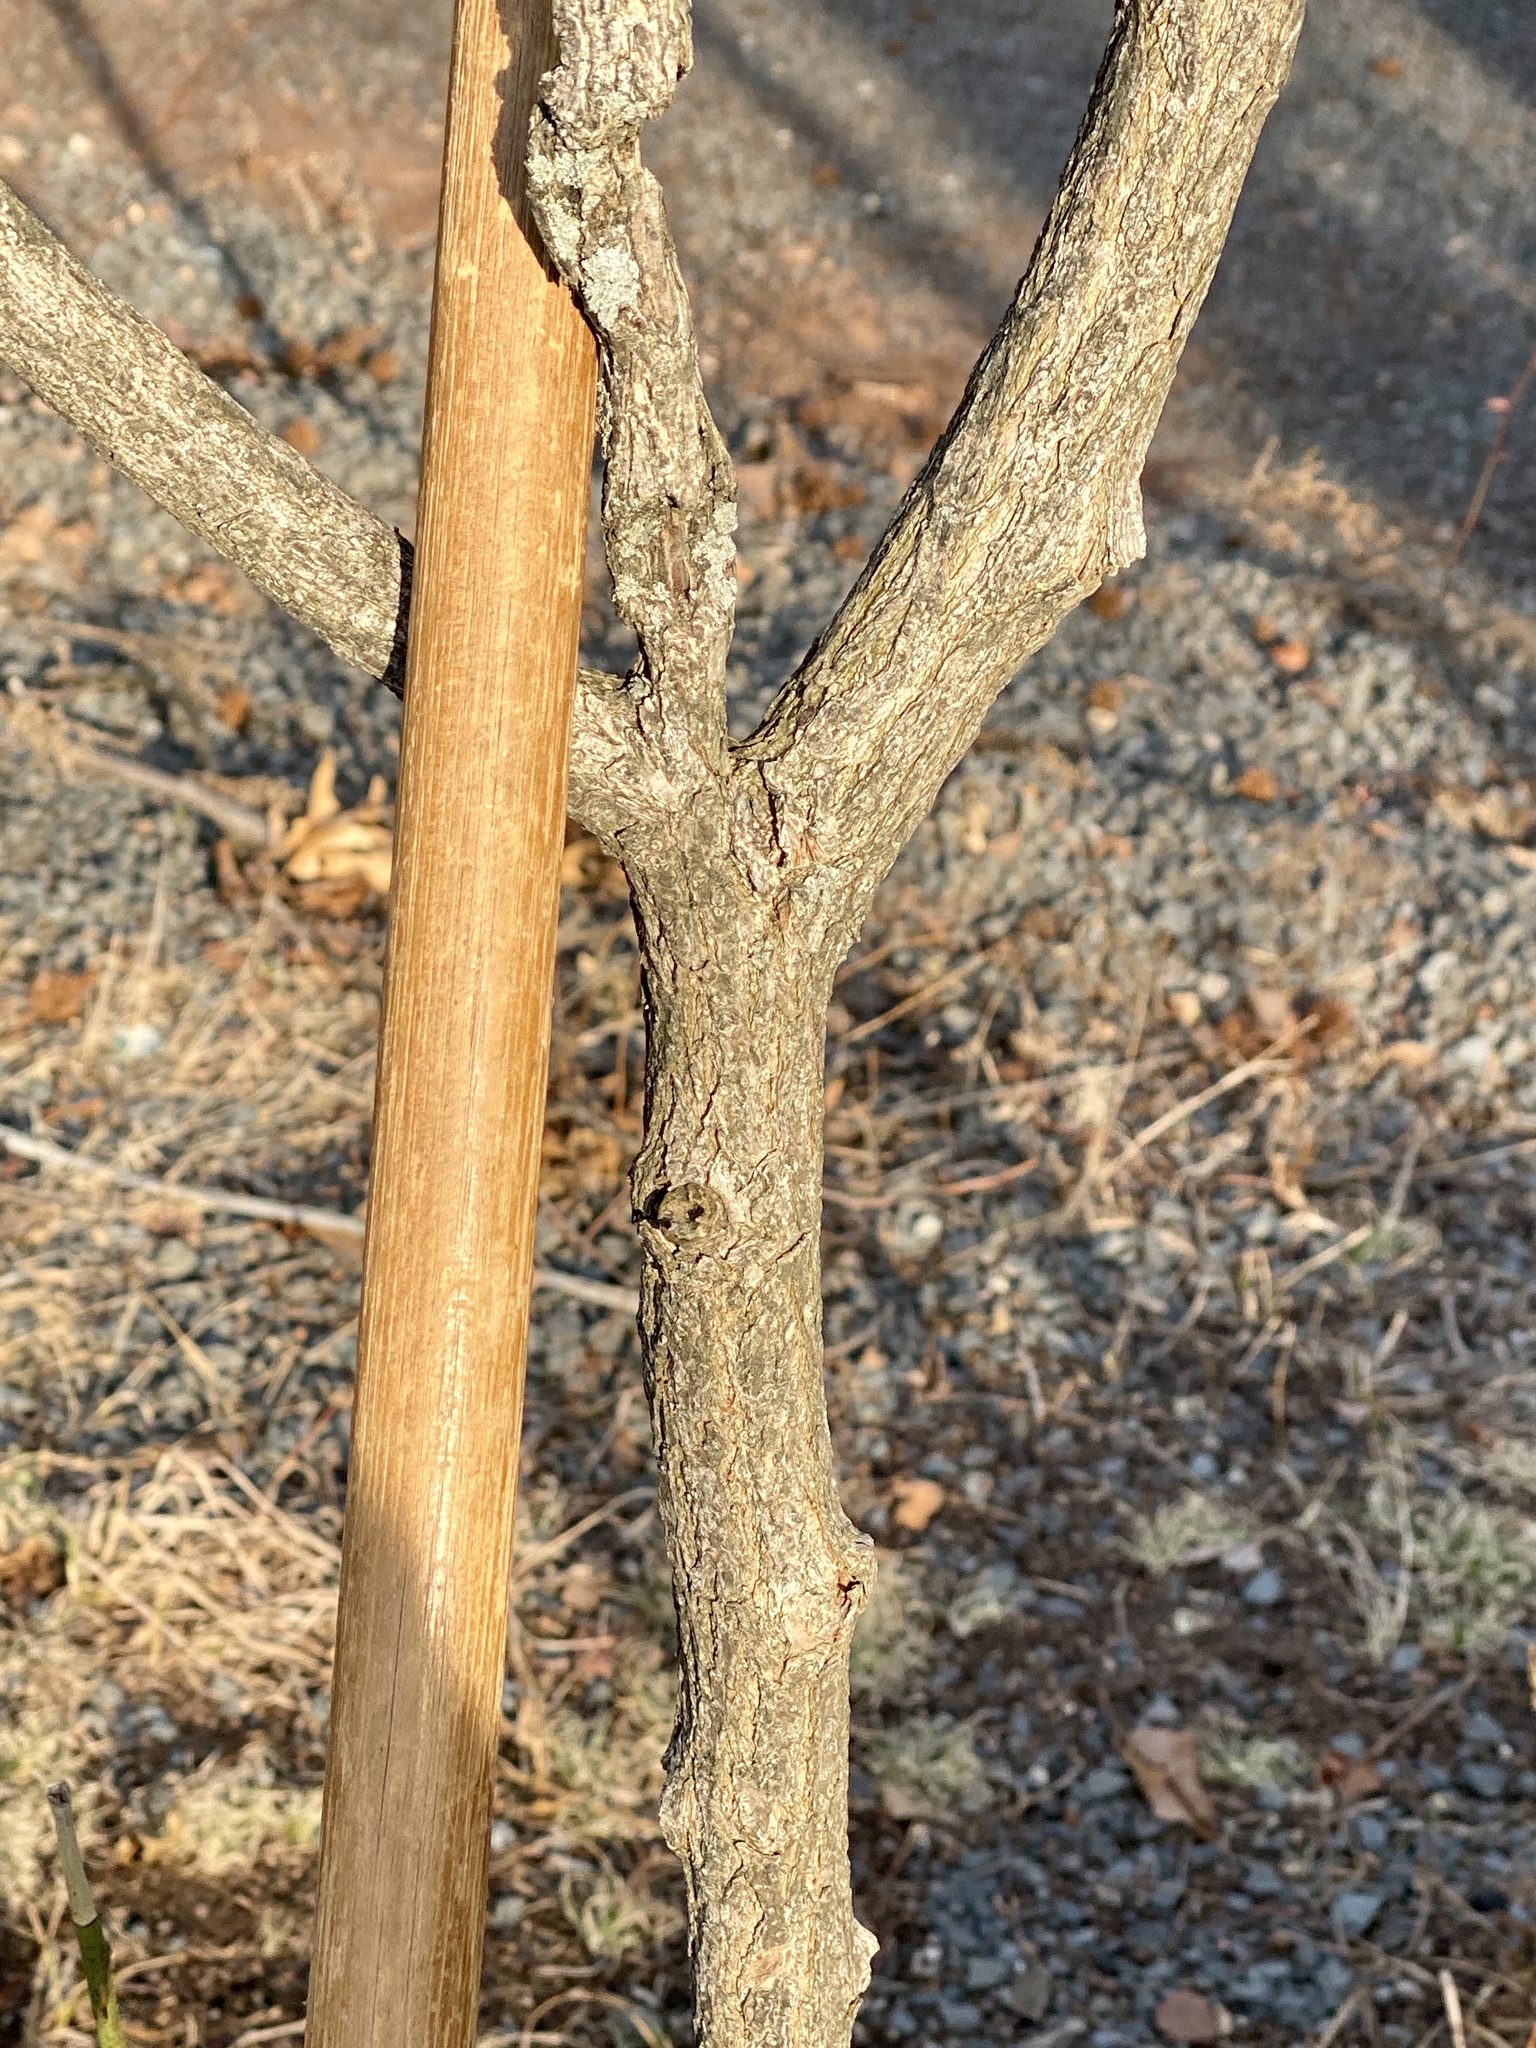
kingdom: Plantae
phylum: Tracheophyta
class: Magnoliopsida
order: Laurales
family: Lauraceae
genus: Sassafras
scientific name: Sassafras albidum
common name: Sassafras
